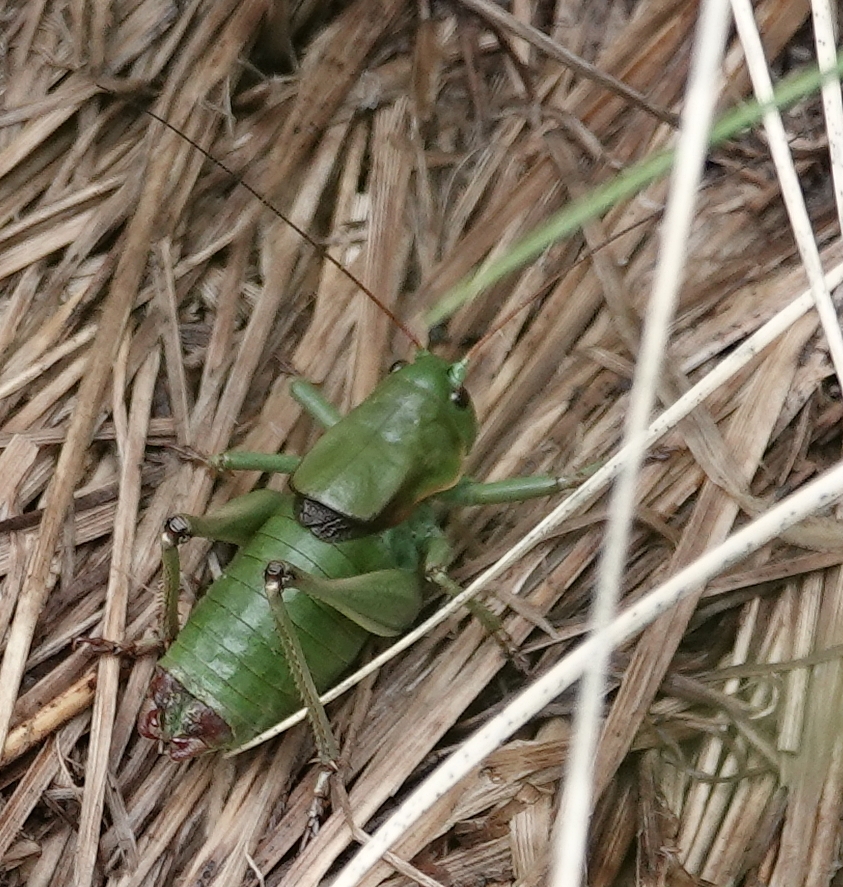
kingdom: Animalia
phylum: Arthropoda
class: Insecta
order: Orthoptera
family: Tettigoniidae
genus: Anabrus
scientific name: Anabrus simplex
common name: Mormon cricket
